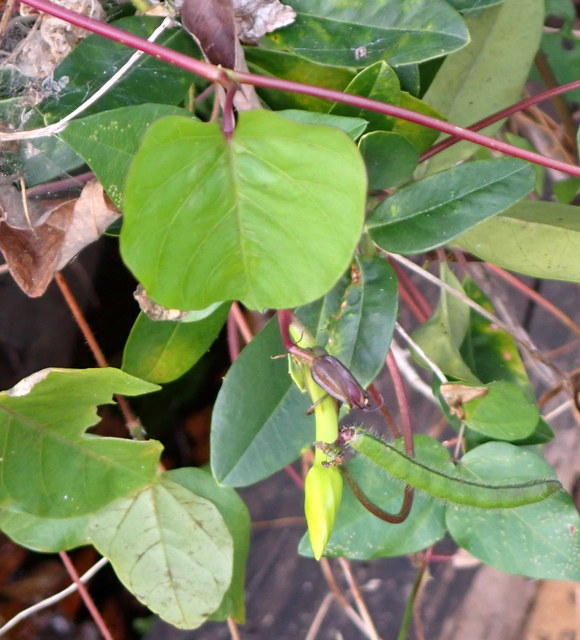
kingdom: Plantae
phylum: Tracheophyta
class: Magnoliopsida
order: Solanales
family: Convolvulaceae
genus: Ipomoea
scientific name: Ipomoea alba
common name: Moonflower
